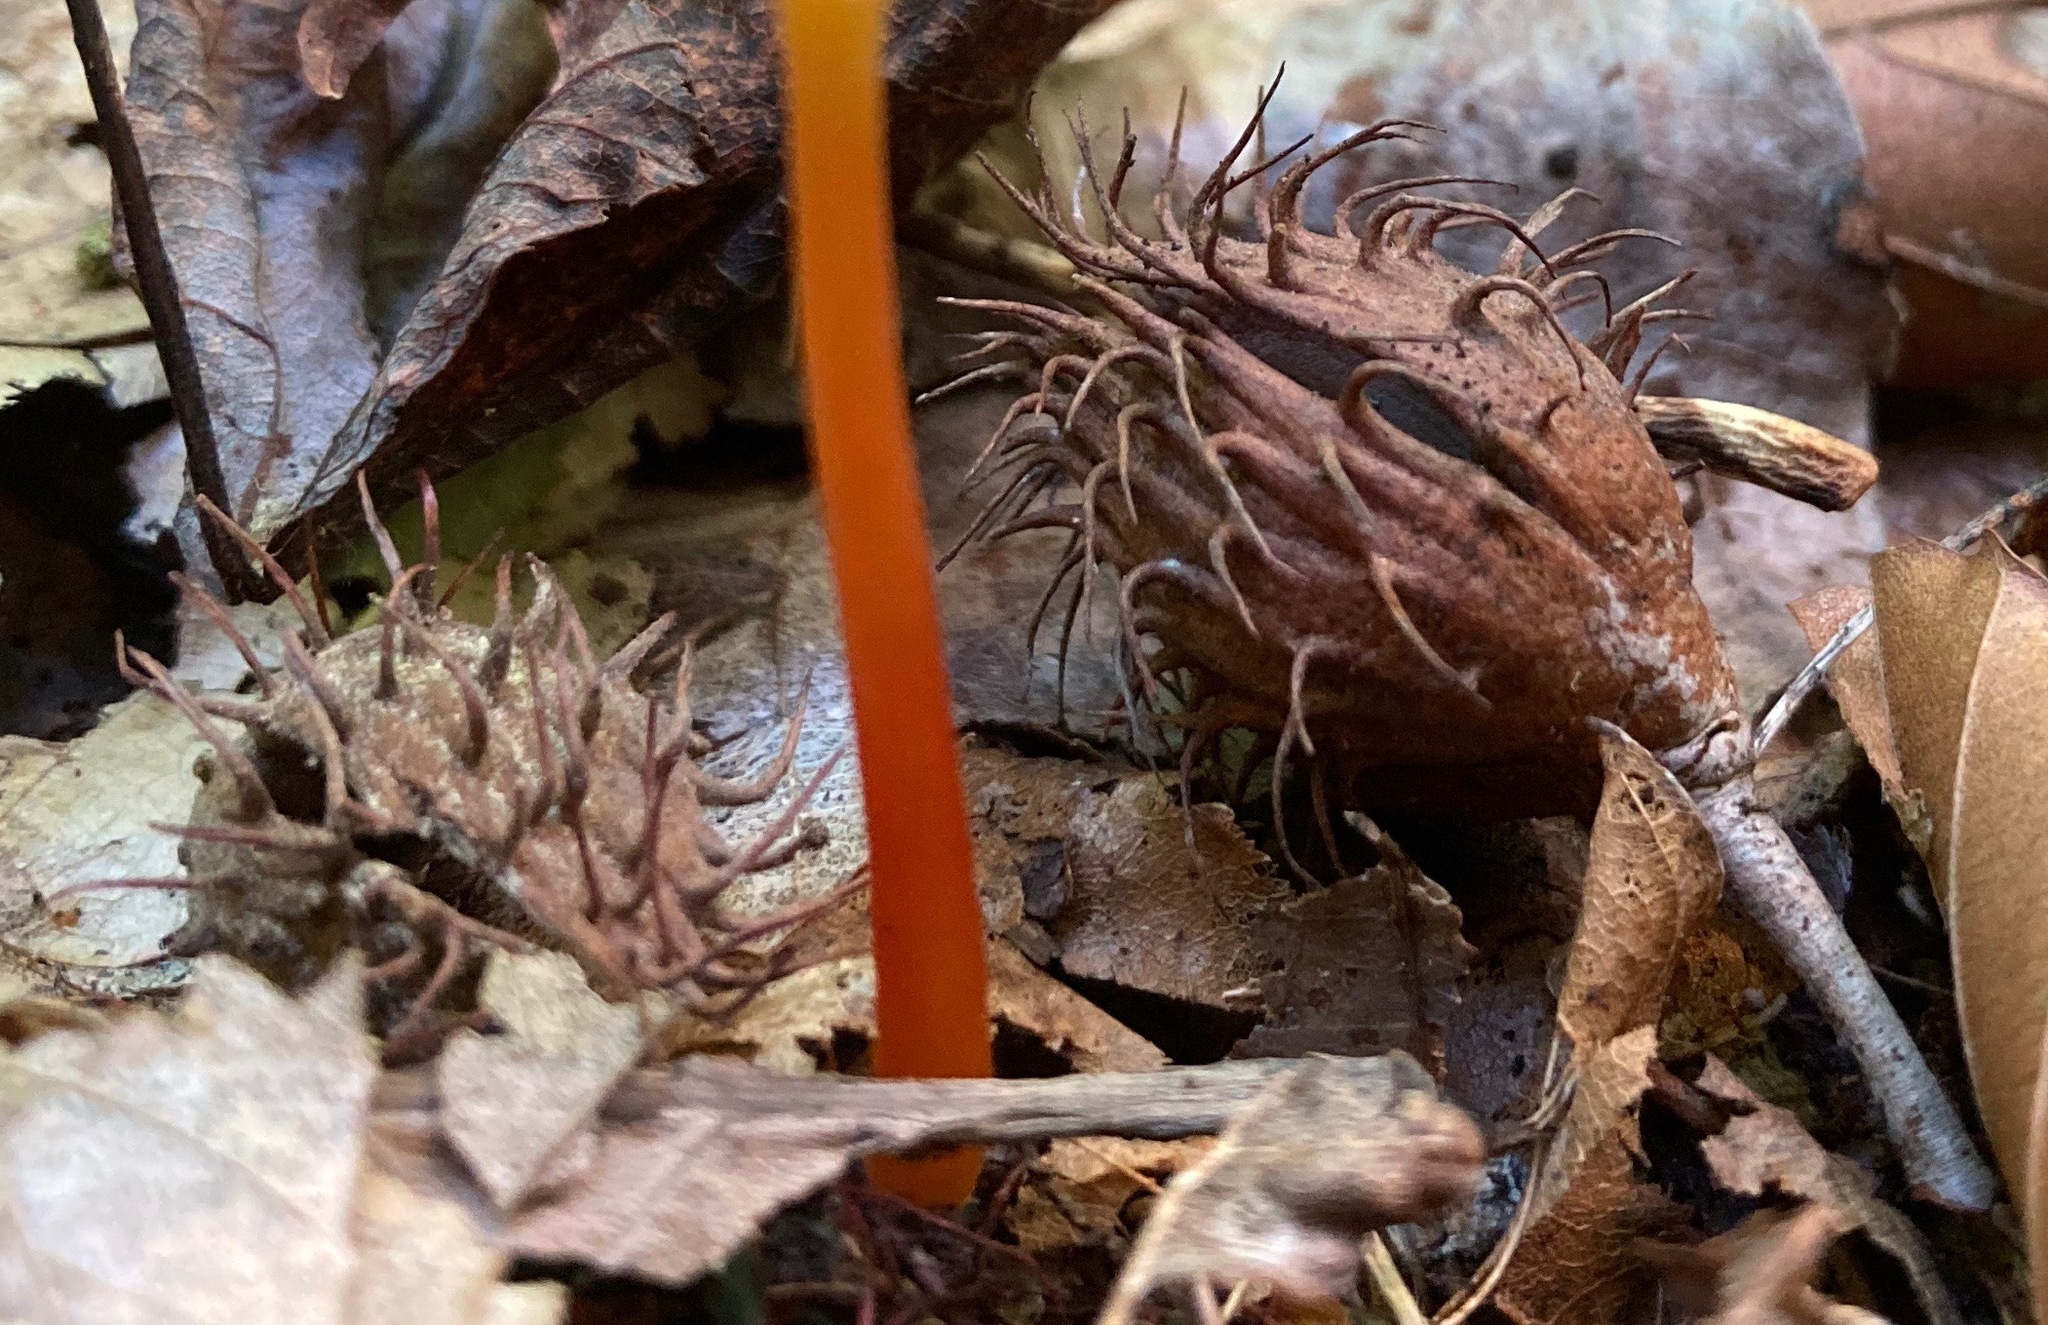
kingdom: Plantae
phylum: Tracheophyta
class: Magnoliopsida
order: Fagales
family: Fagaceae
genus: Fagus
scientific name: Fagus grandifolia
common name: American beech
